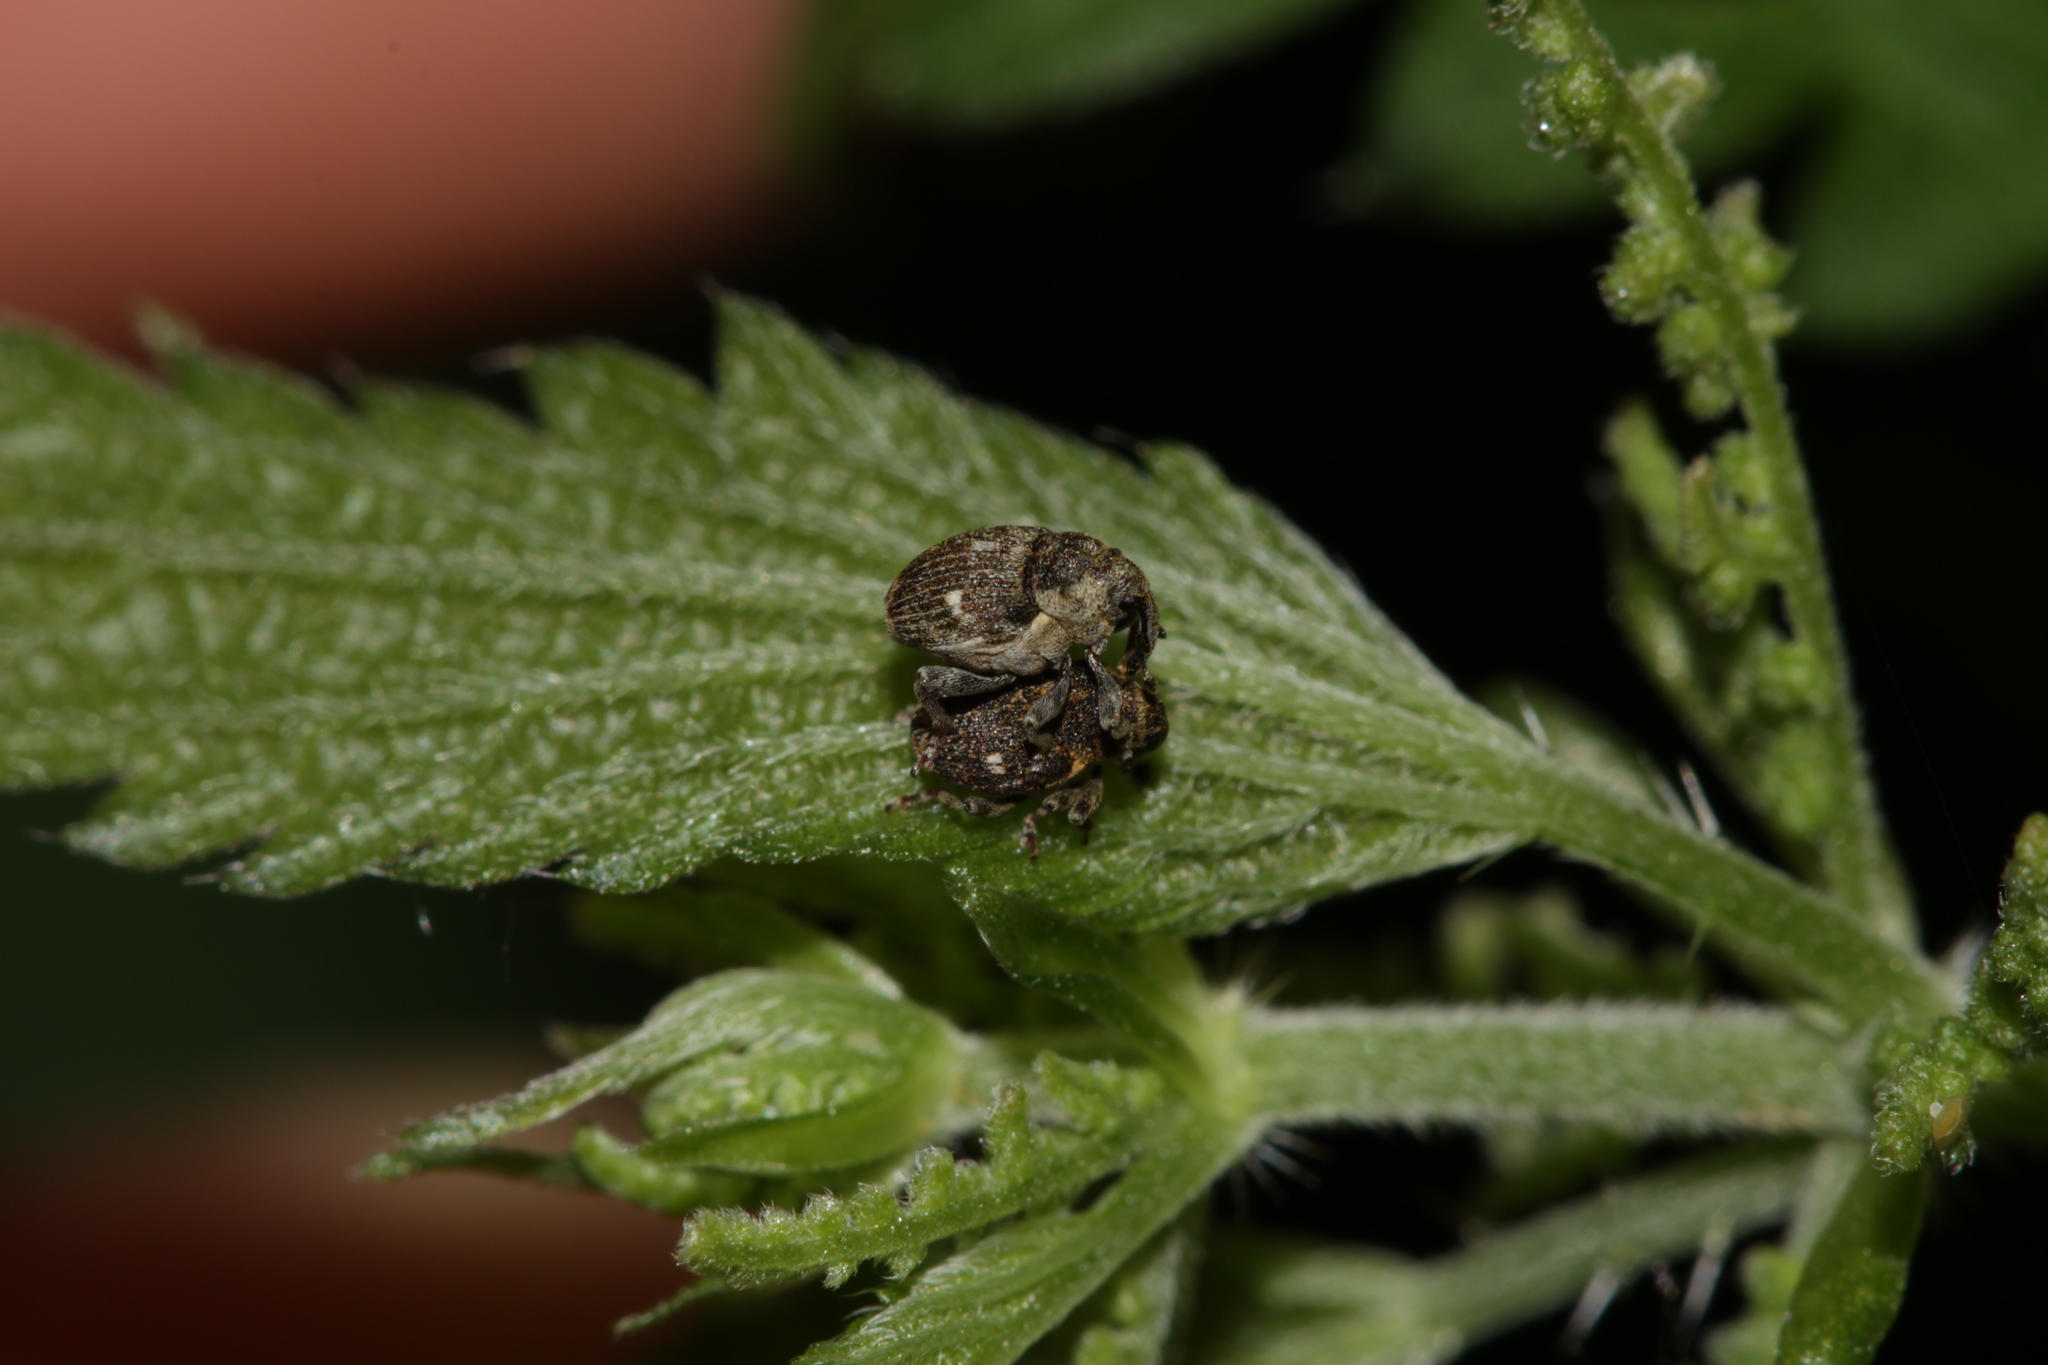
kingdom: Animalia
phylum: Arthropoda
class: Insecta
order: Coleoptera
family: Curculionidae
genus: Nedyus
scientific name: Nedyus quadrimaculatus
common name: Small nettle weevil
